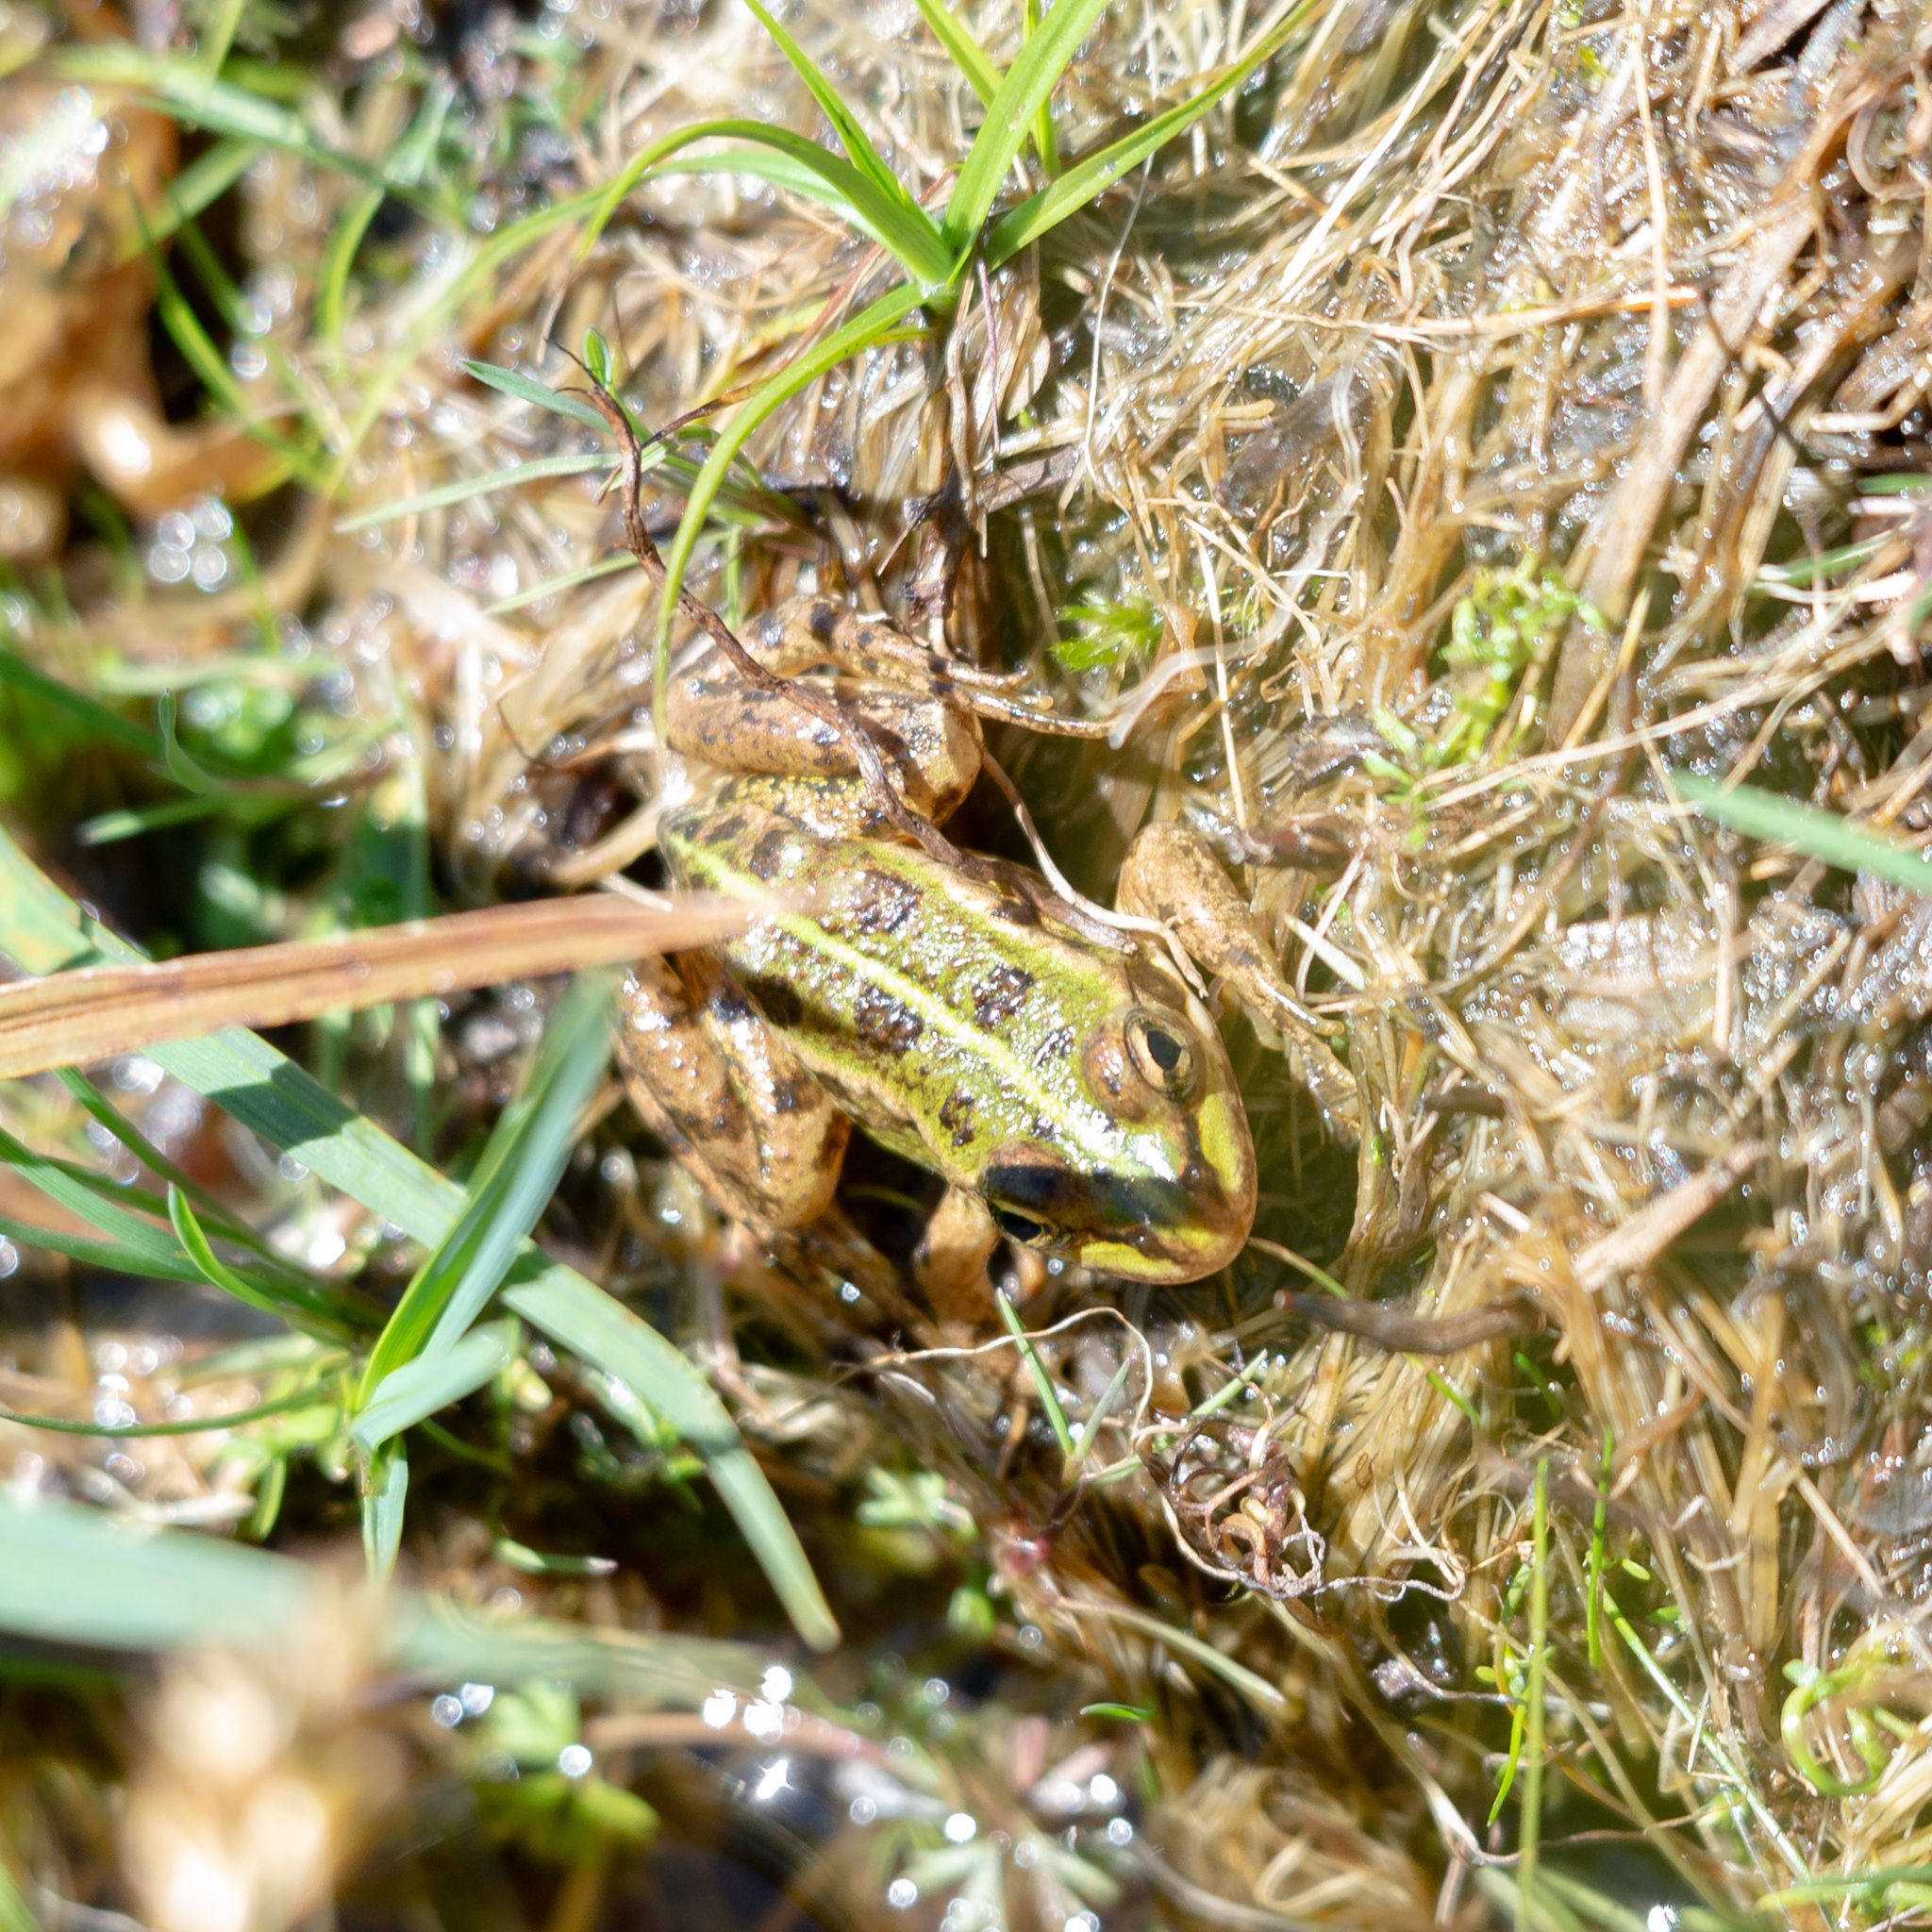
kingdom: Animalia
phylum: Chordata
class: Amphibia
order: Anura
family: Ranidae
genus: Pelophylax
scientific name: Pelophylax perezi
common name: Perez's frog
